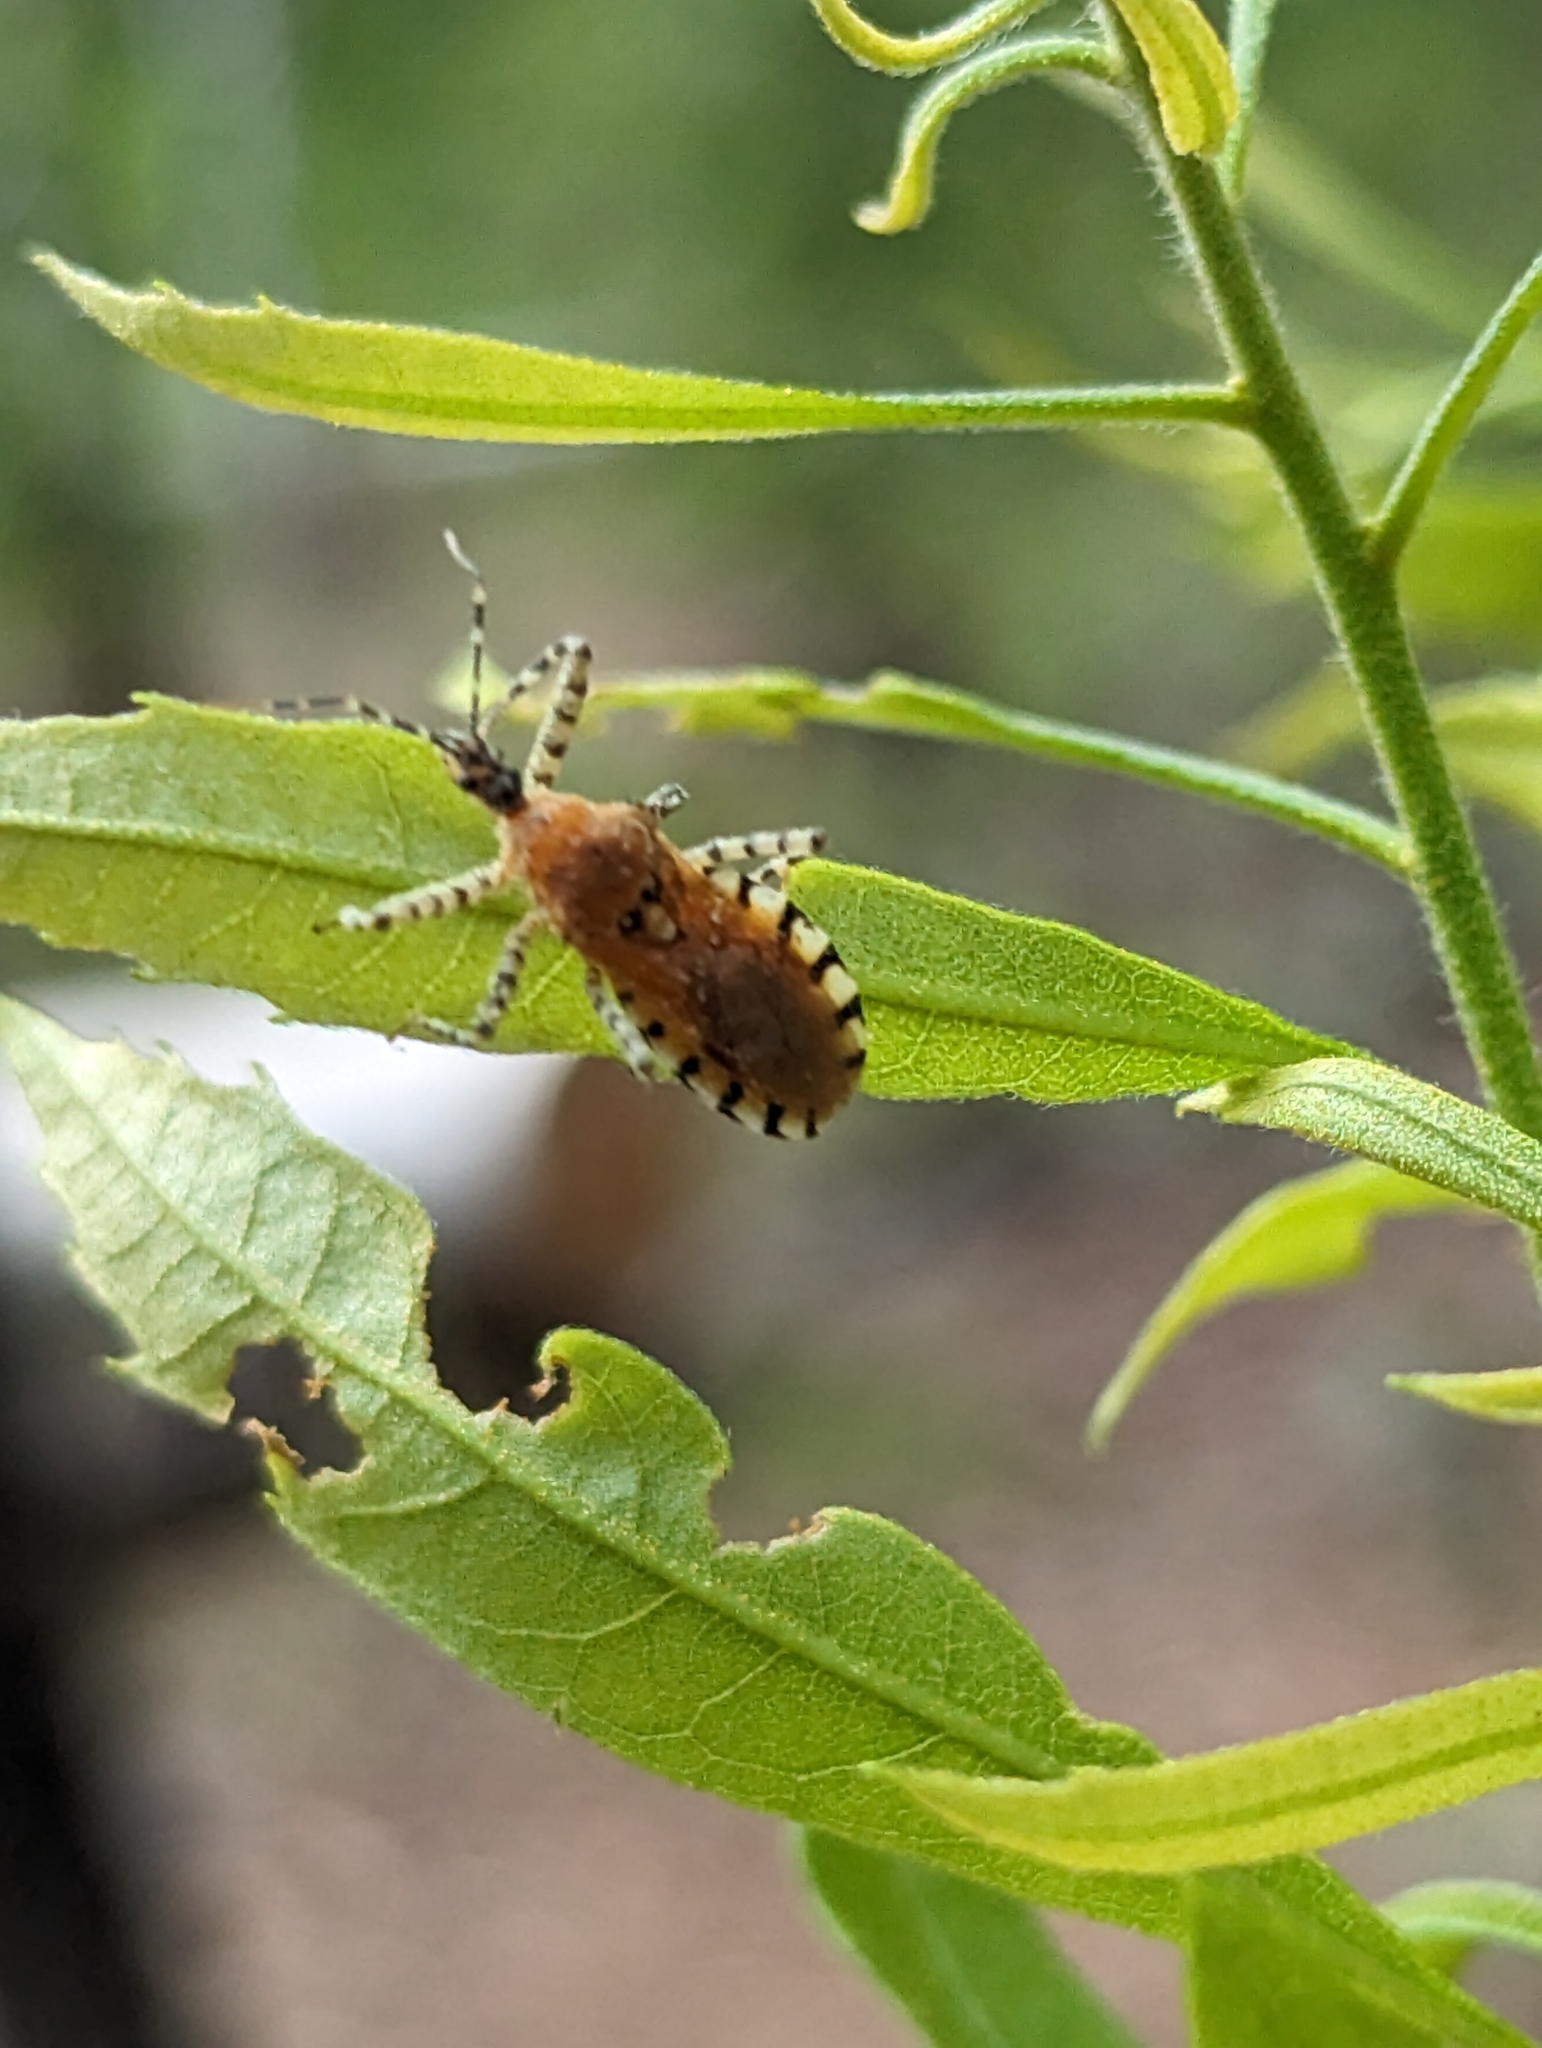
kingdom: Animalia
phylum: Arthropoda
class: Insecta
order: Hemiptera
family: Reduviidae
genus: Pselliopus
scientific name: Pselliopus cinctus
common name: Ringed assassin bug
